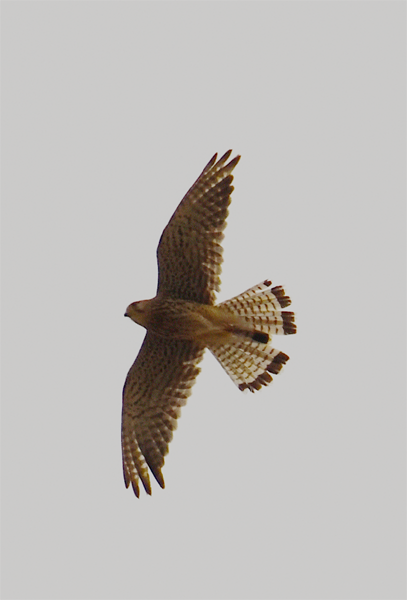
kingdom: Animalia
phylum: Chordata
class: Aves
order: Falconiformes
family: Falconidae
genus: Falco
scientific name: Falco tinnunculus
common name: Common kestrel
